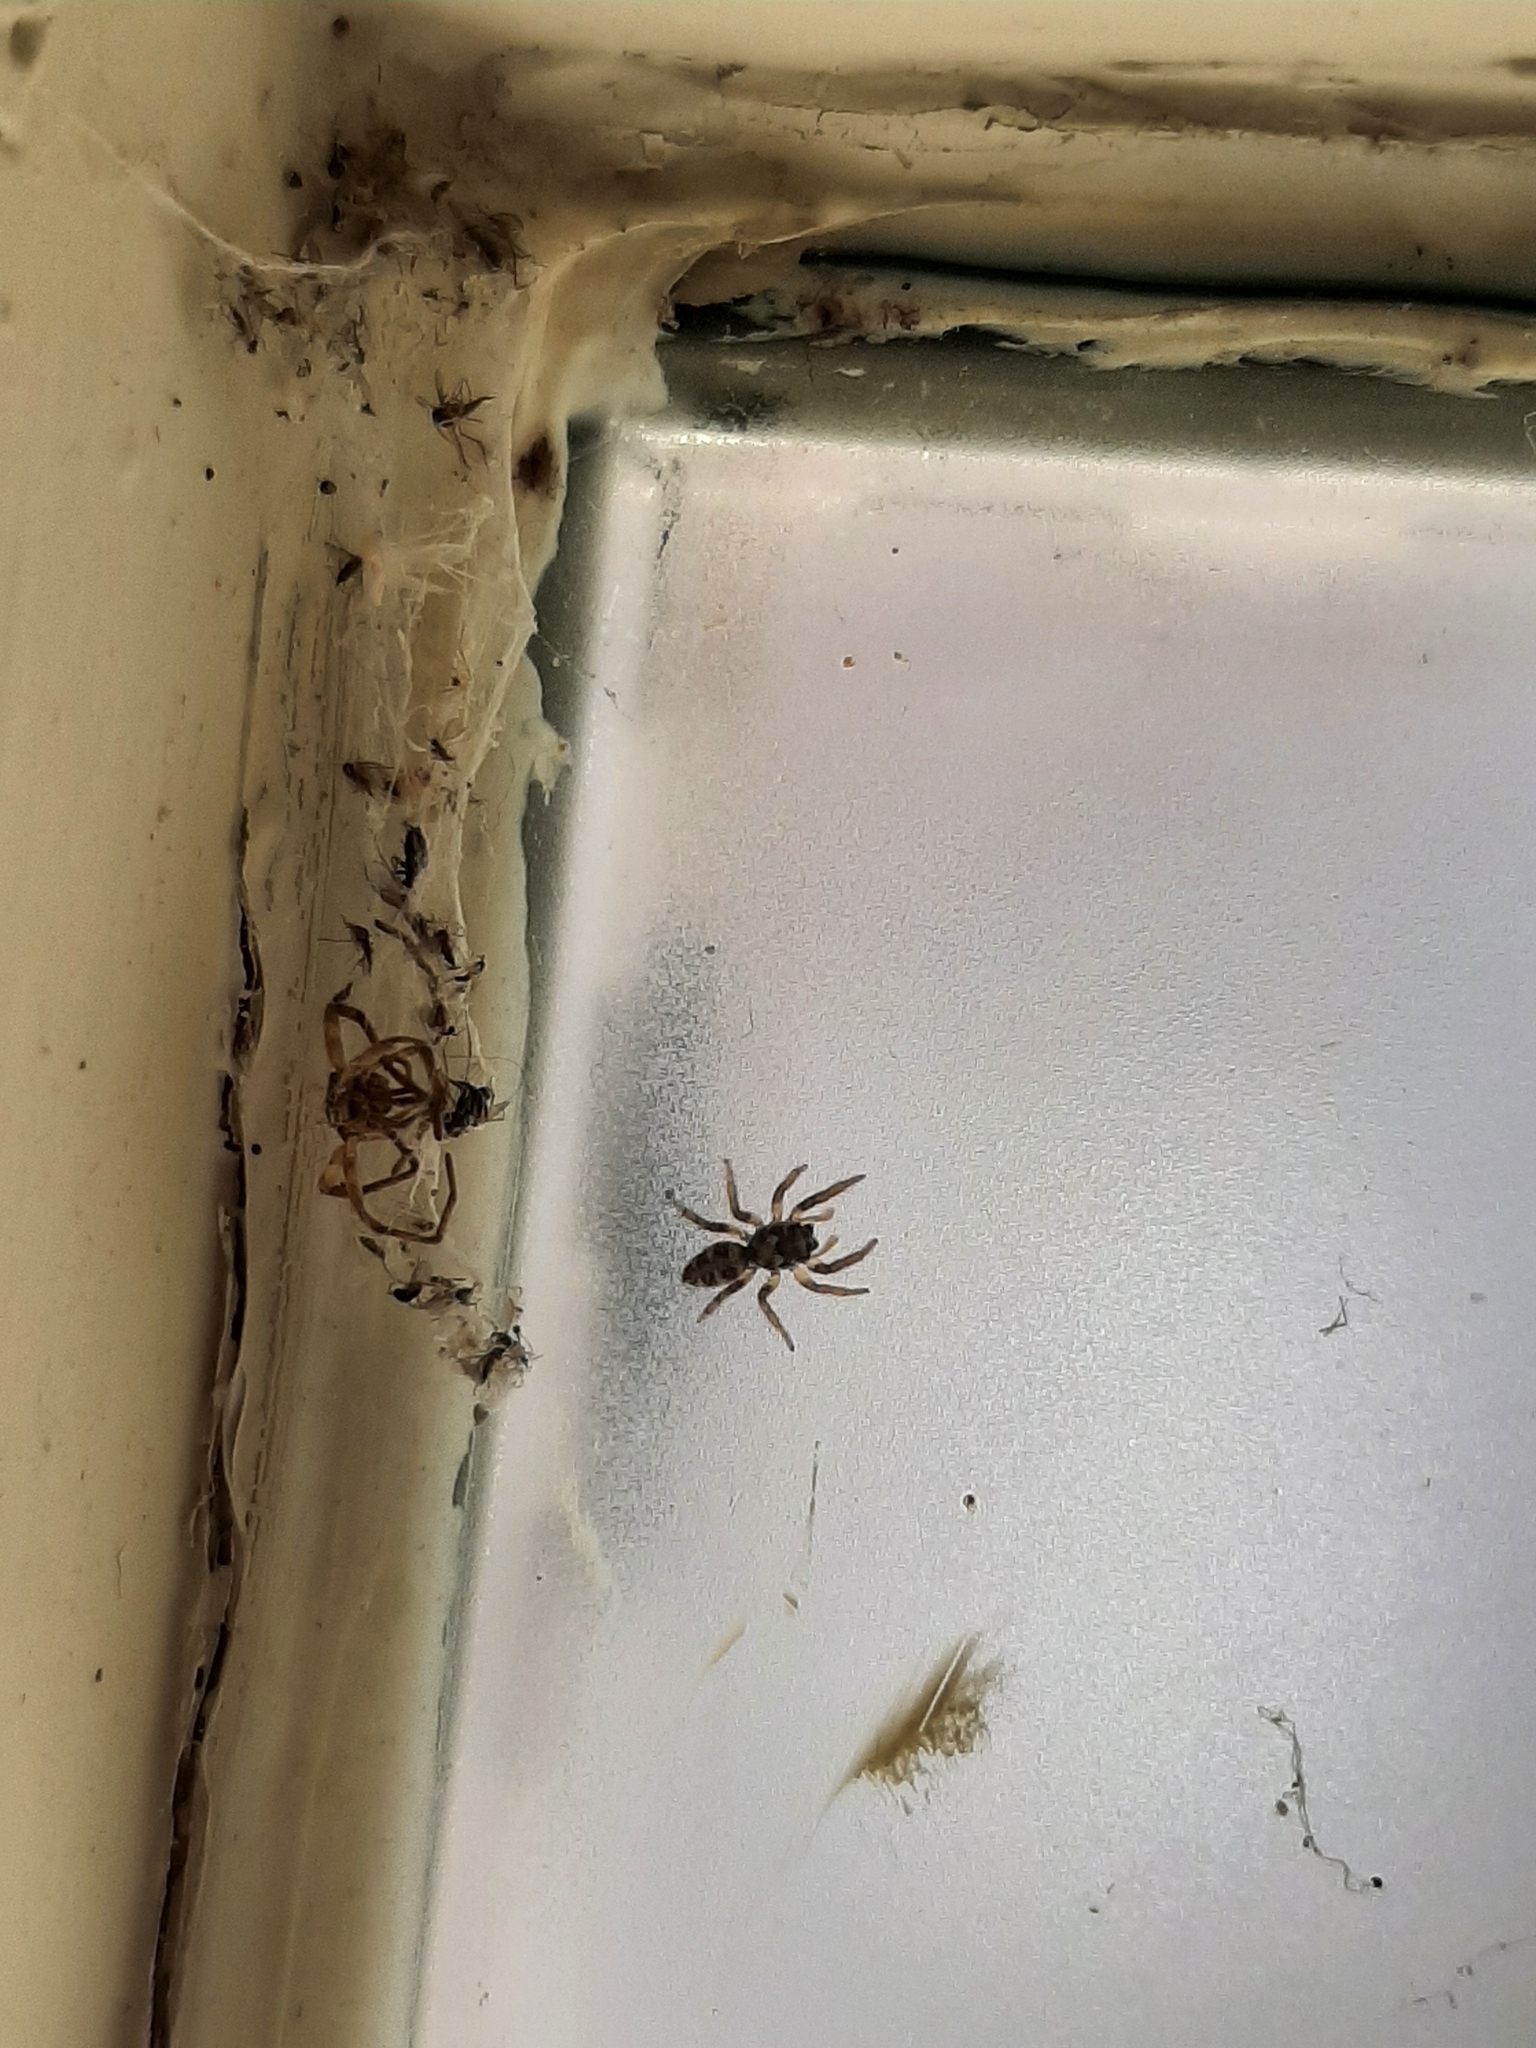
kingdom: Animalia
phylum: Arthropoda
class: Arachnida
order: Araneae
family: Salticidae
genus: Salticus
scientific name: Salticus scenicus
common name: Zebra jumper
